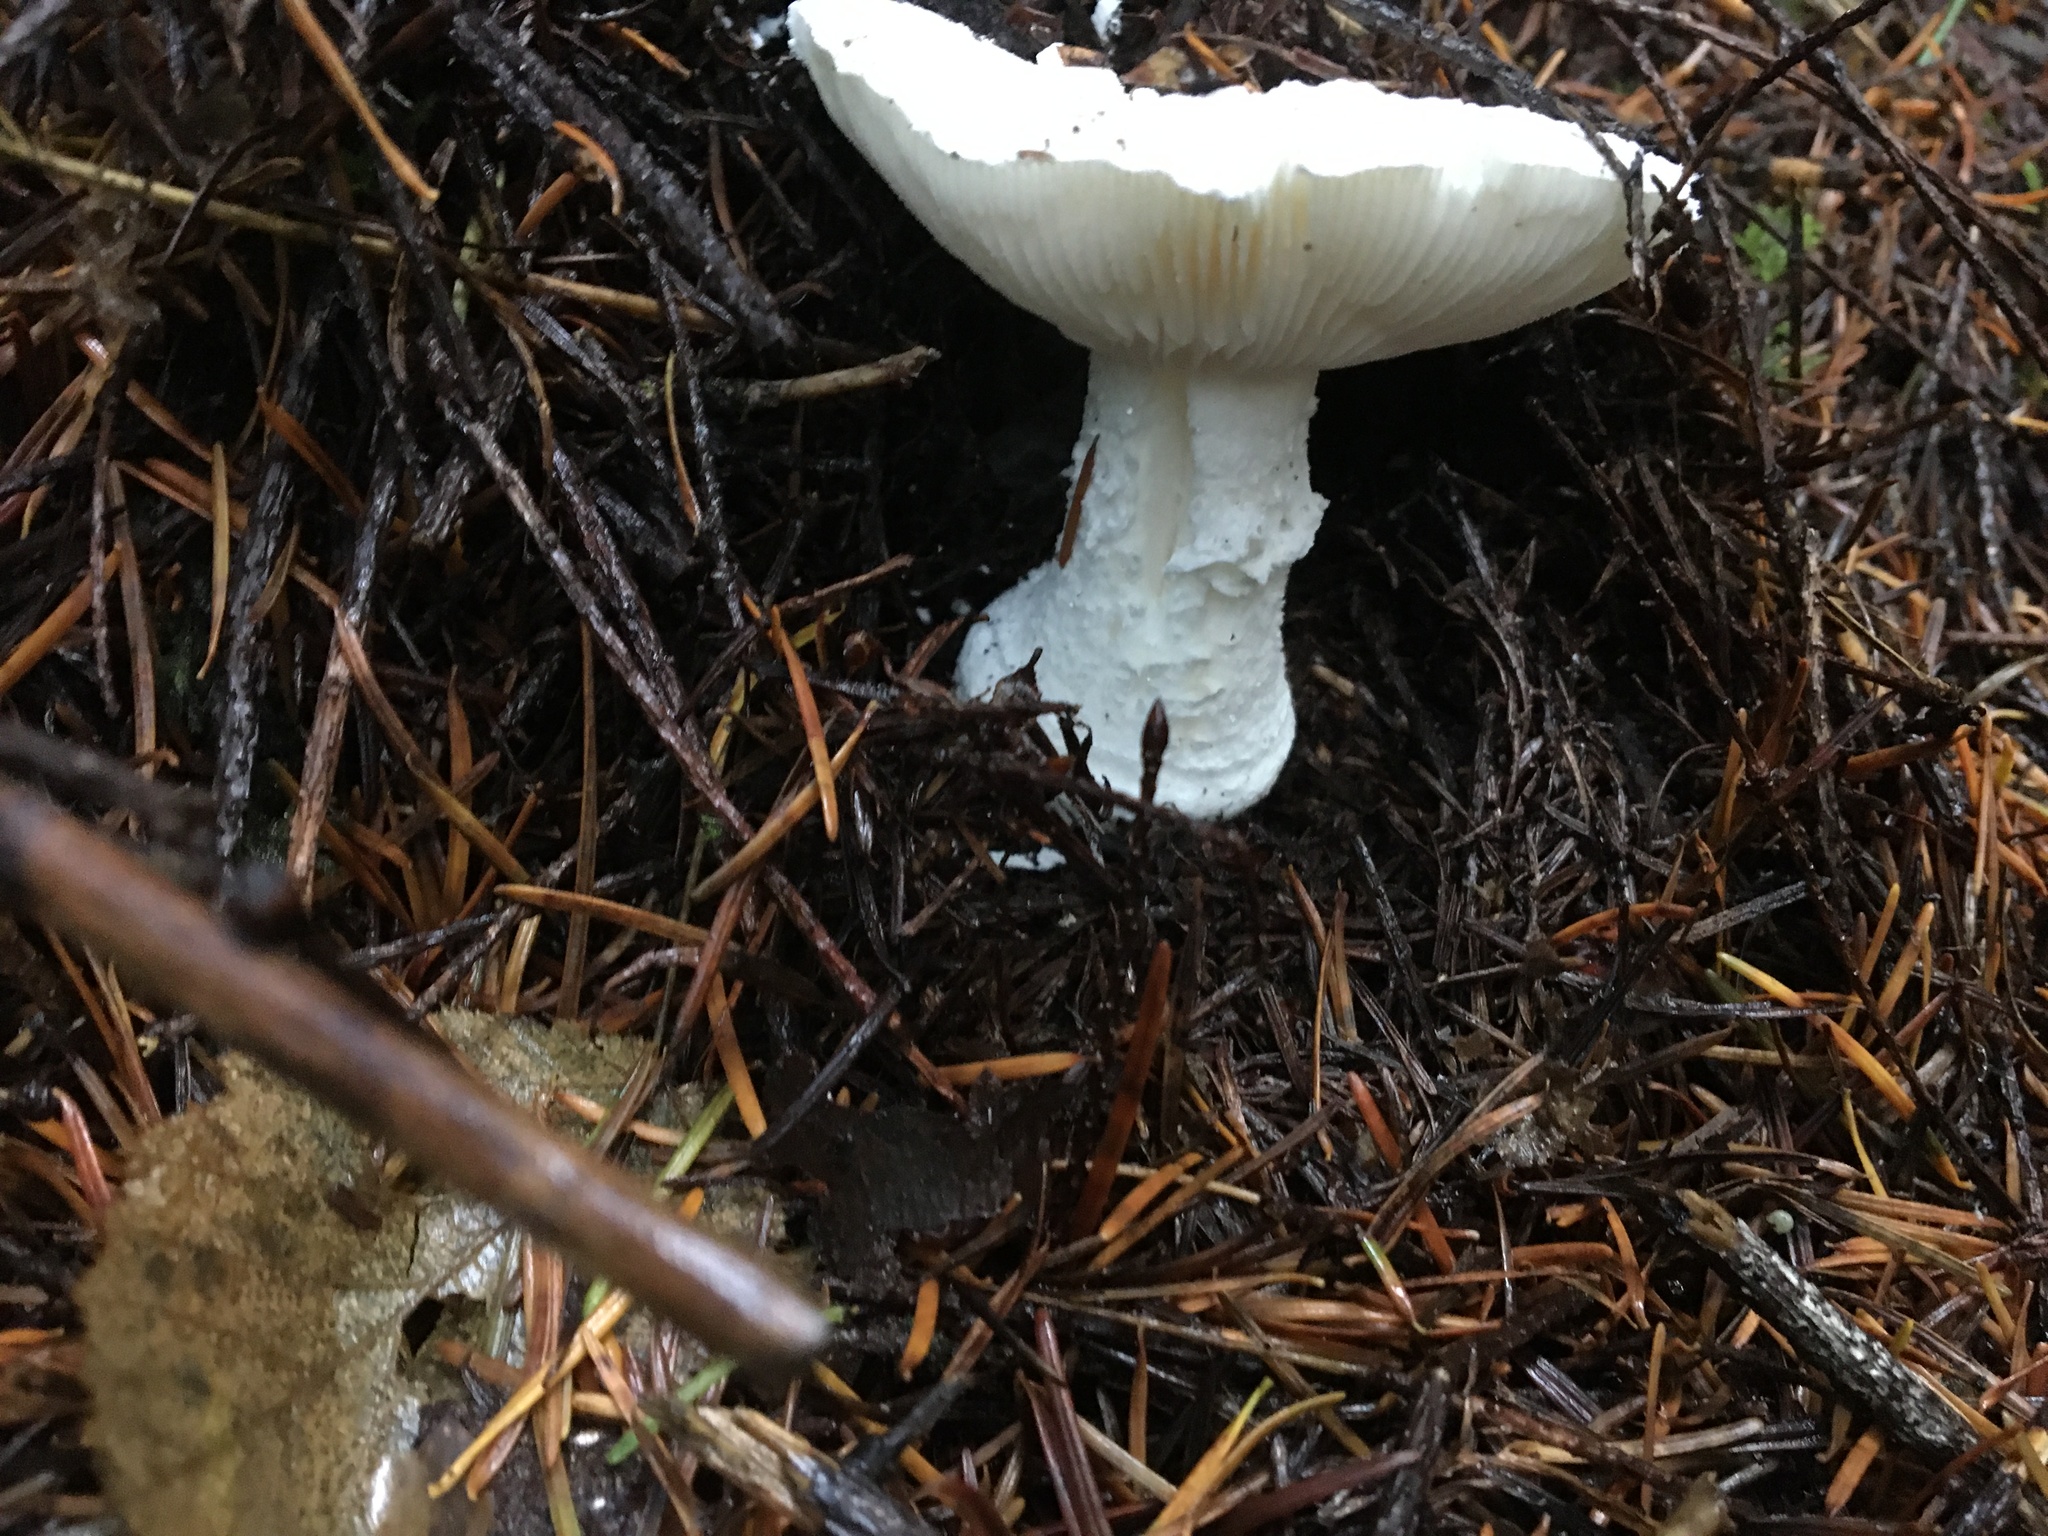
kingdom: Fungi
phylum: Basidiomycota
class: Agaricomycetes
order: Agaricales
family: Amanitaceae
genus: Amanita
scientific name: Amanita silvicola
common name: Woodland amanita
